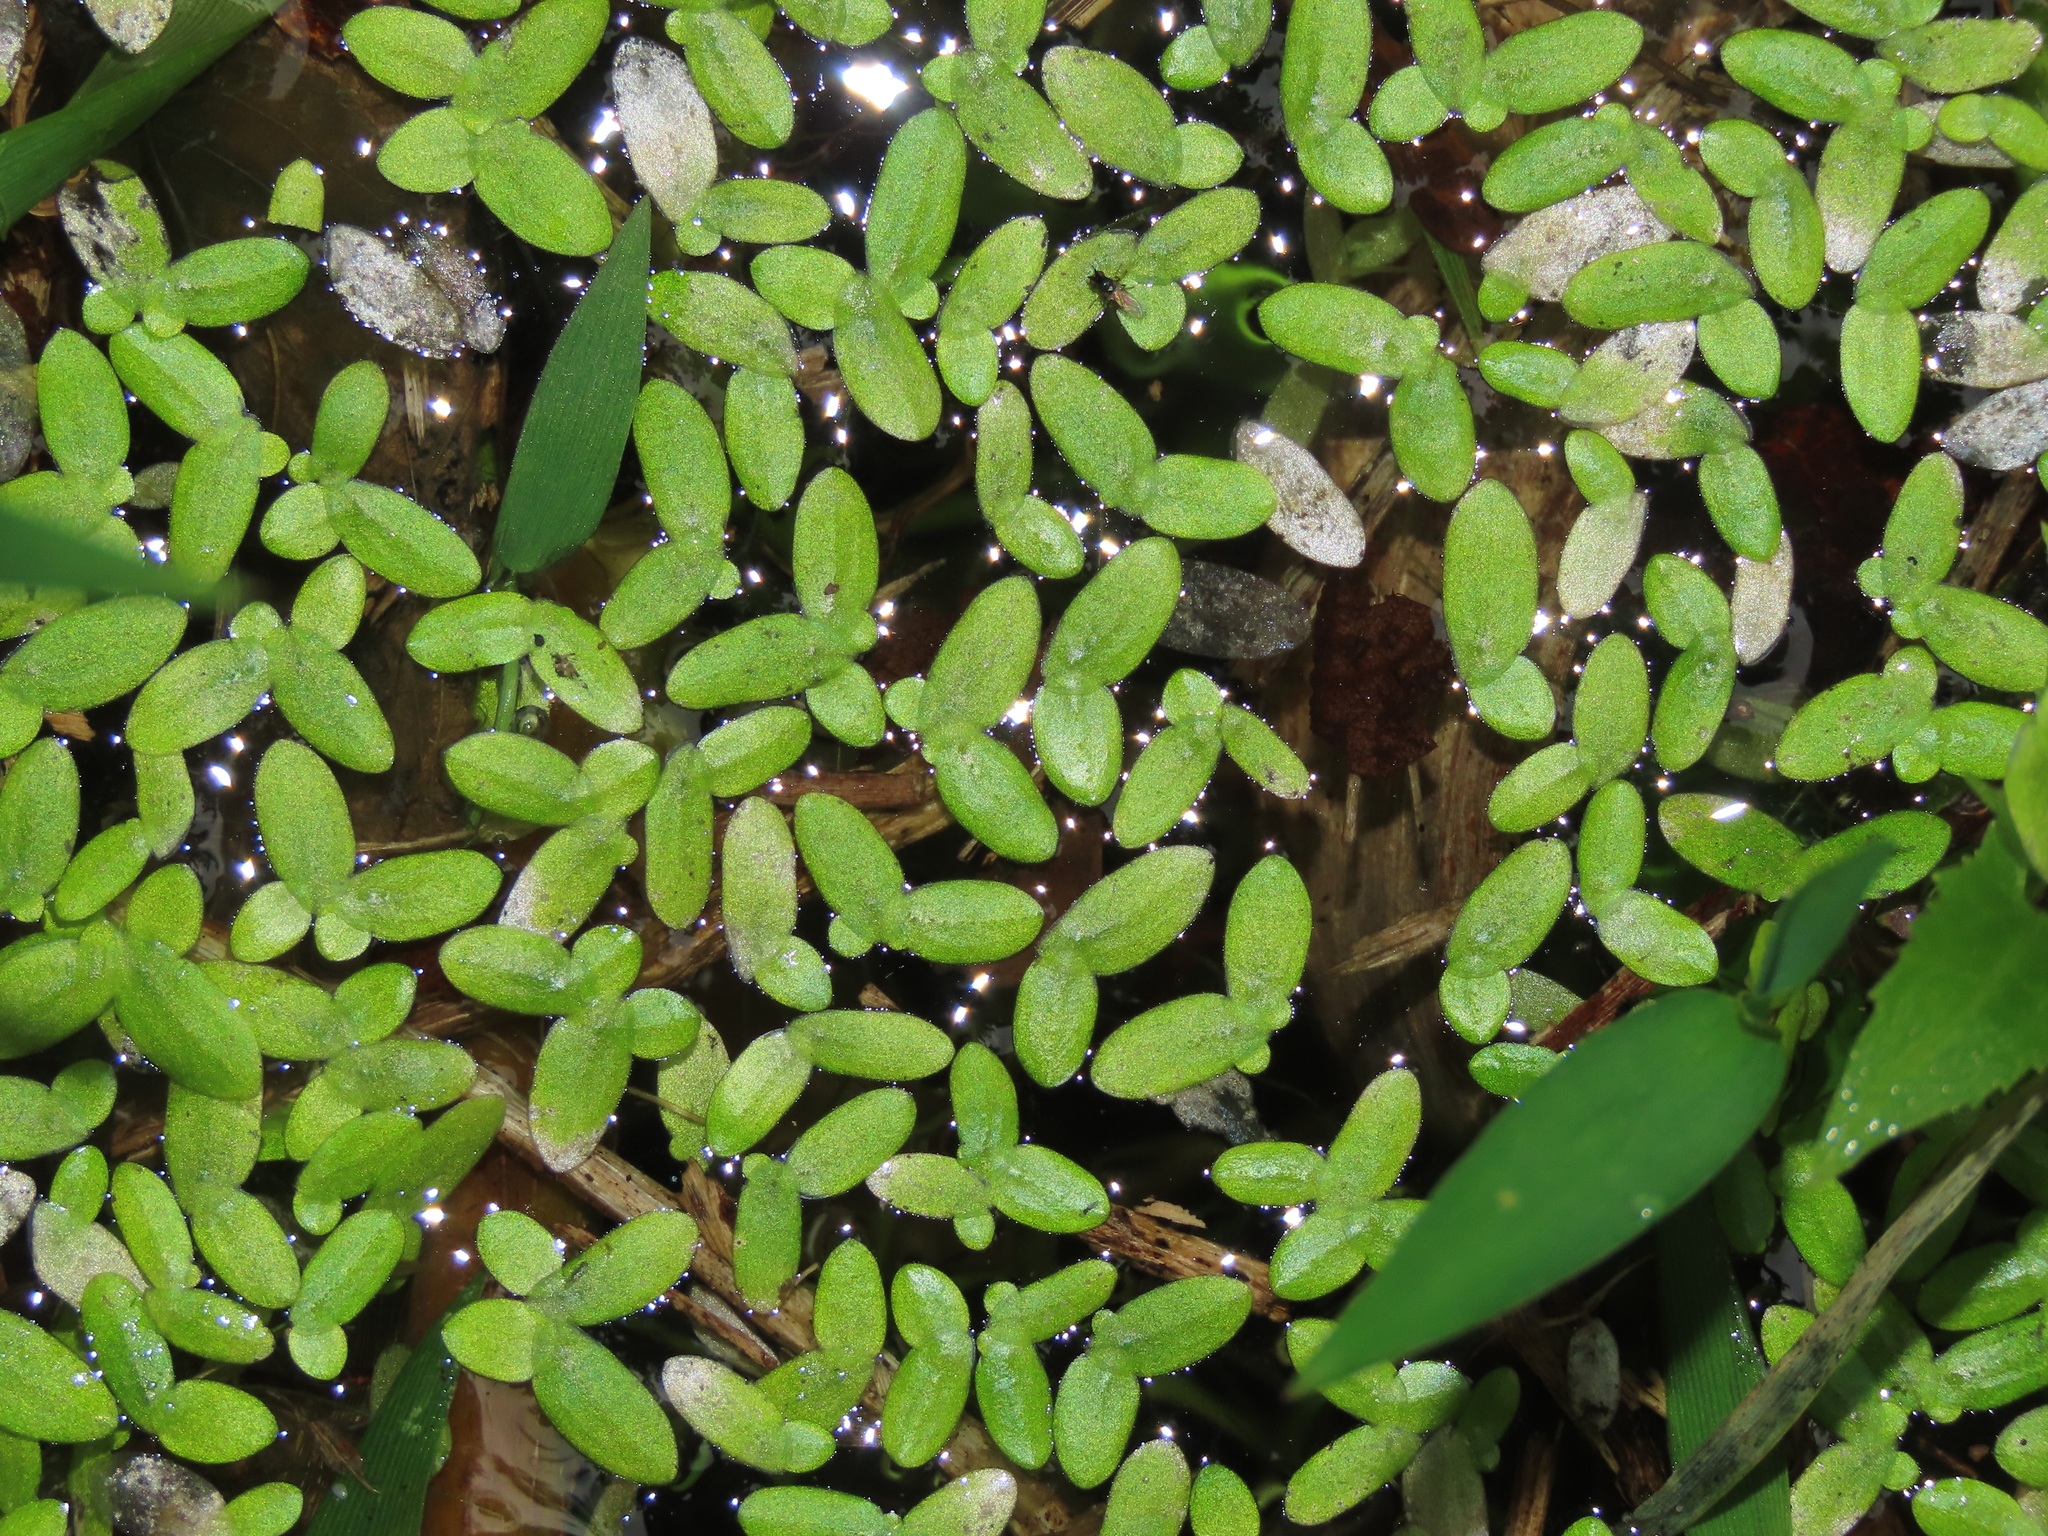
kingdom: Plantae
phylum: Tracheophyta
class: Liliopsida
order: Alismatales
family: Araceae
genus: Lemna
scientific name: Lemna aequinoctialis
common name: Duckweed
